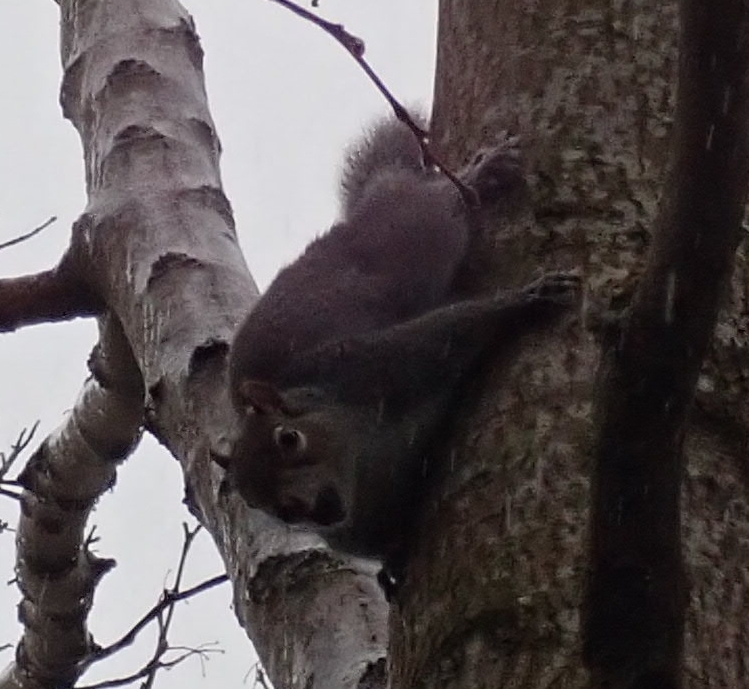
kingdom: Animalia
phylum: Chordata
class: Mammalia
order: Rodentia
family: Sciuridae
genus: Sciurus
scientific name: Sciurus carolinensis
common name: Eastern gray squirrel
